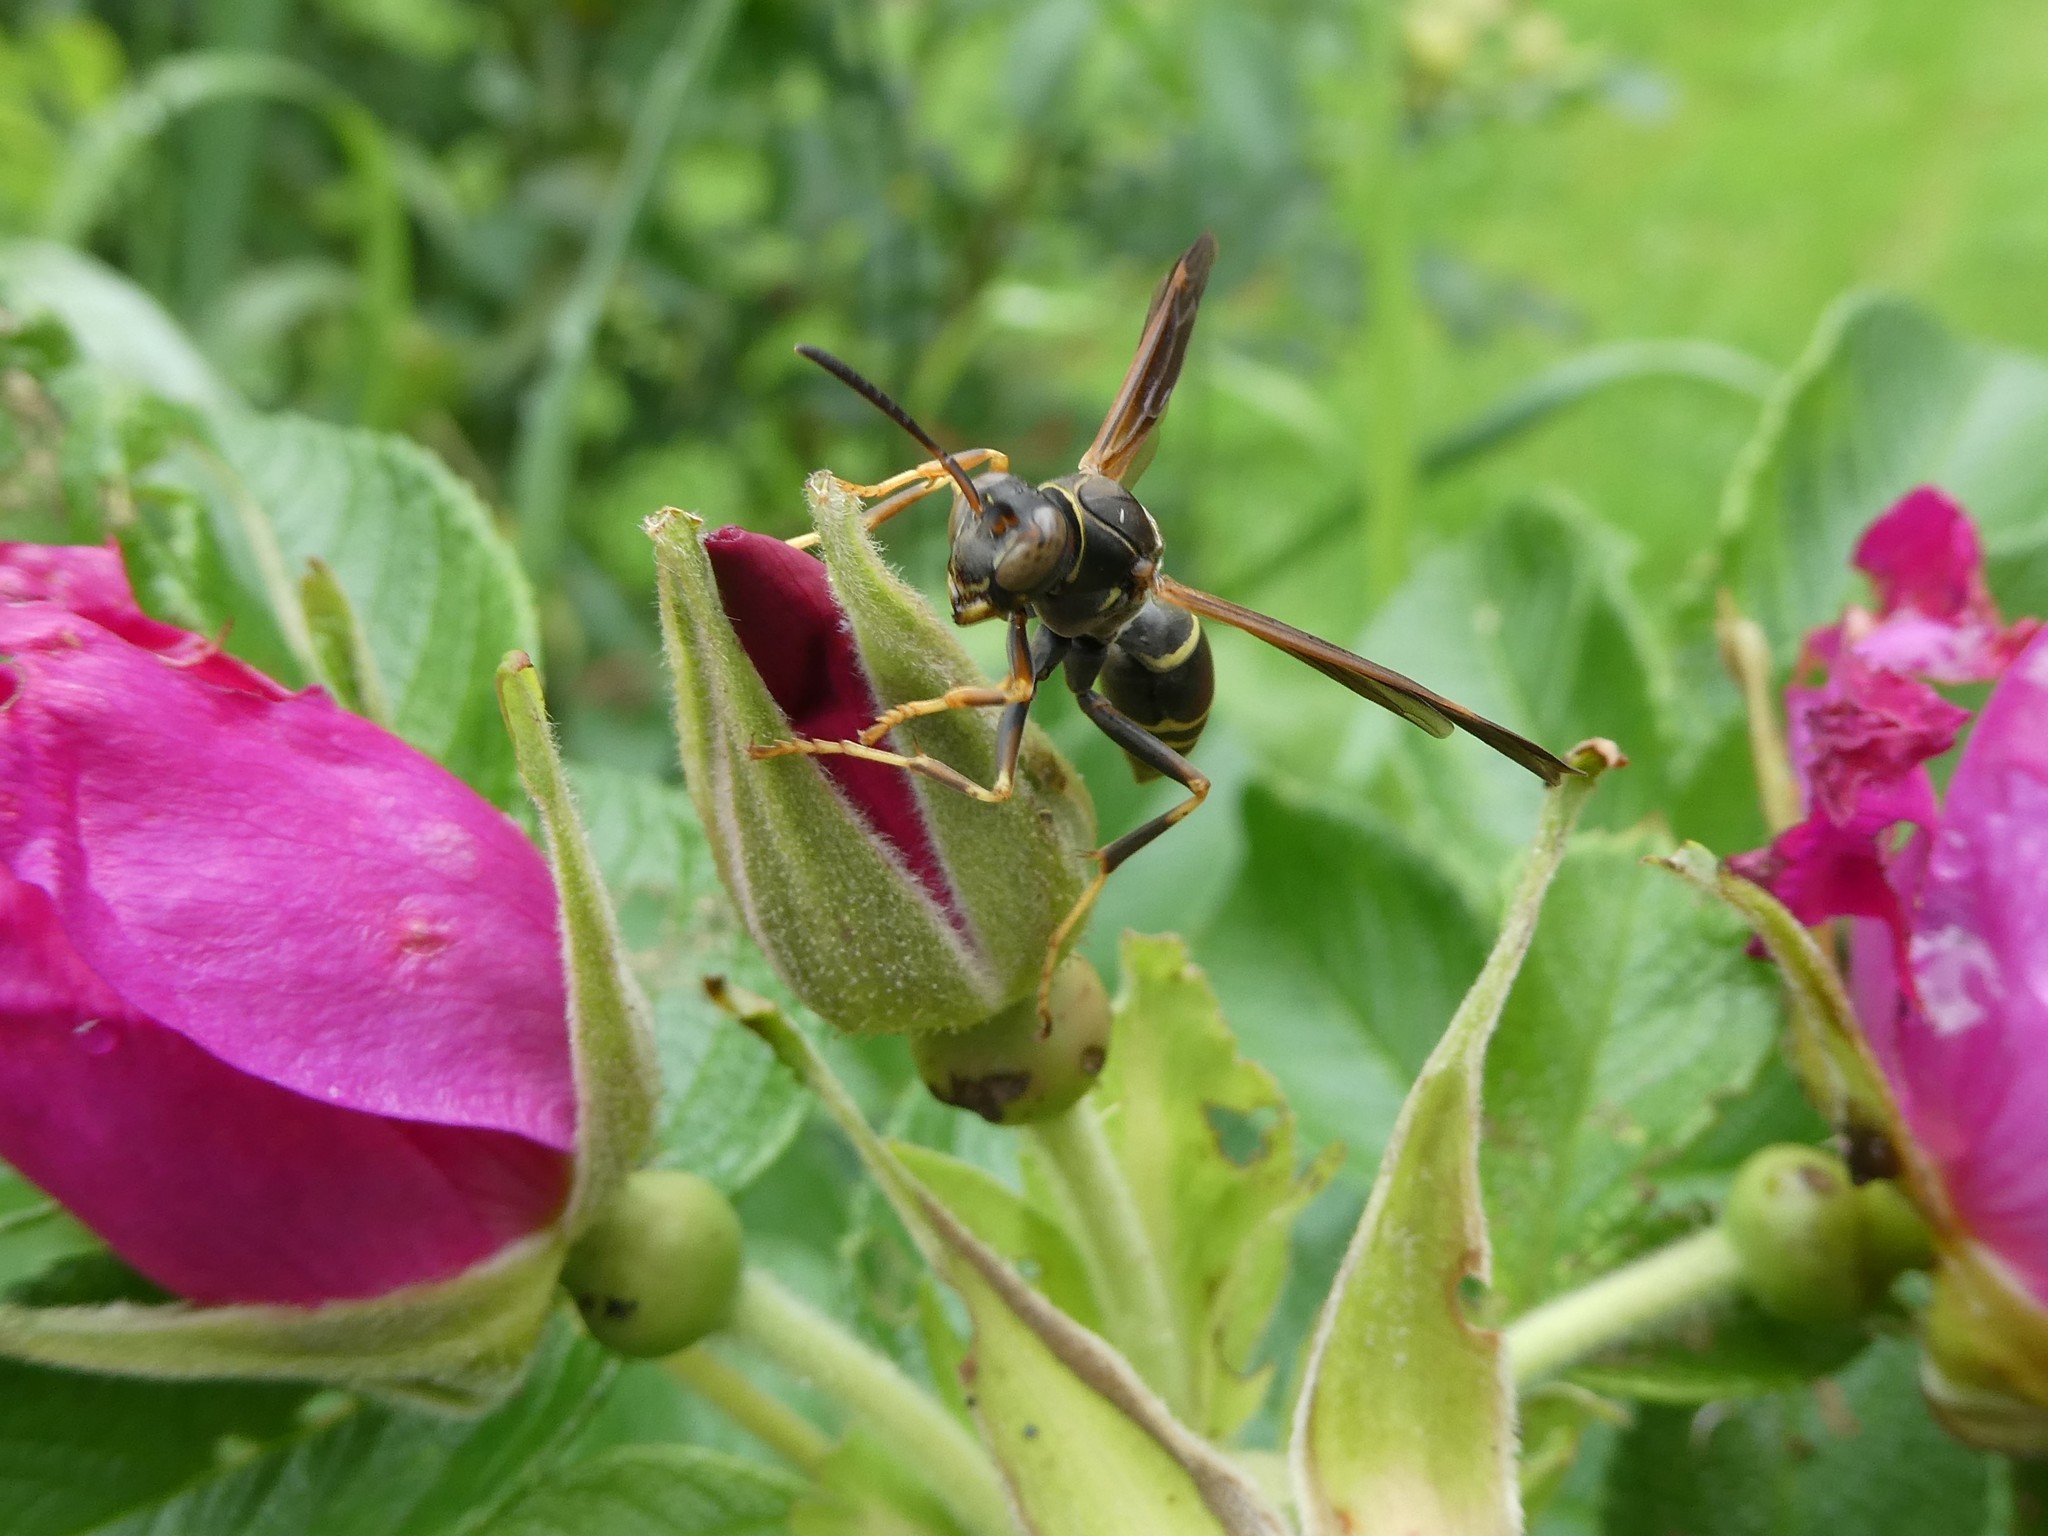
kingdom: Animalia
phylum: Arthropoda
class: Insecta
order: Hymenoptera
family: Eumenidae
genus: Polistes
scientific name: Polistes fuscatus
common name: Dark paper wasp
